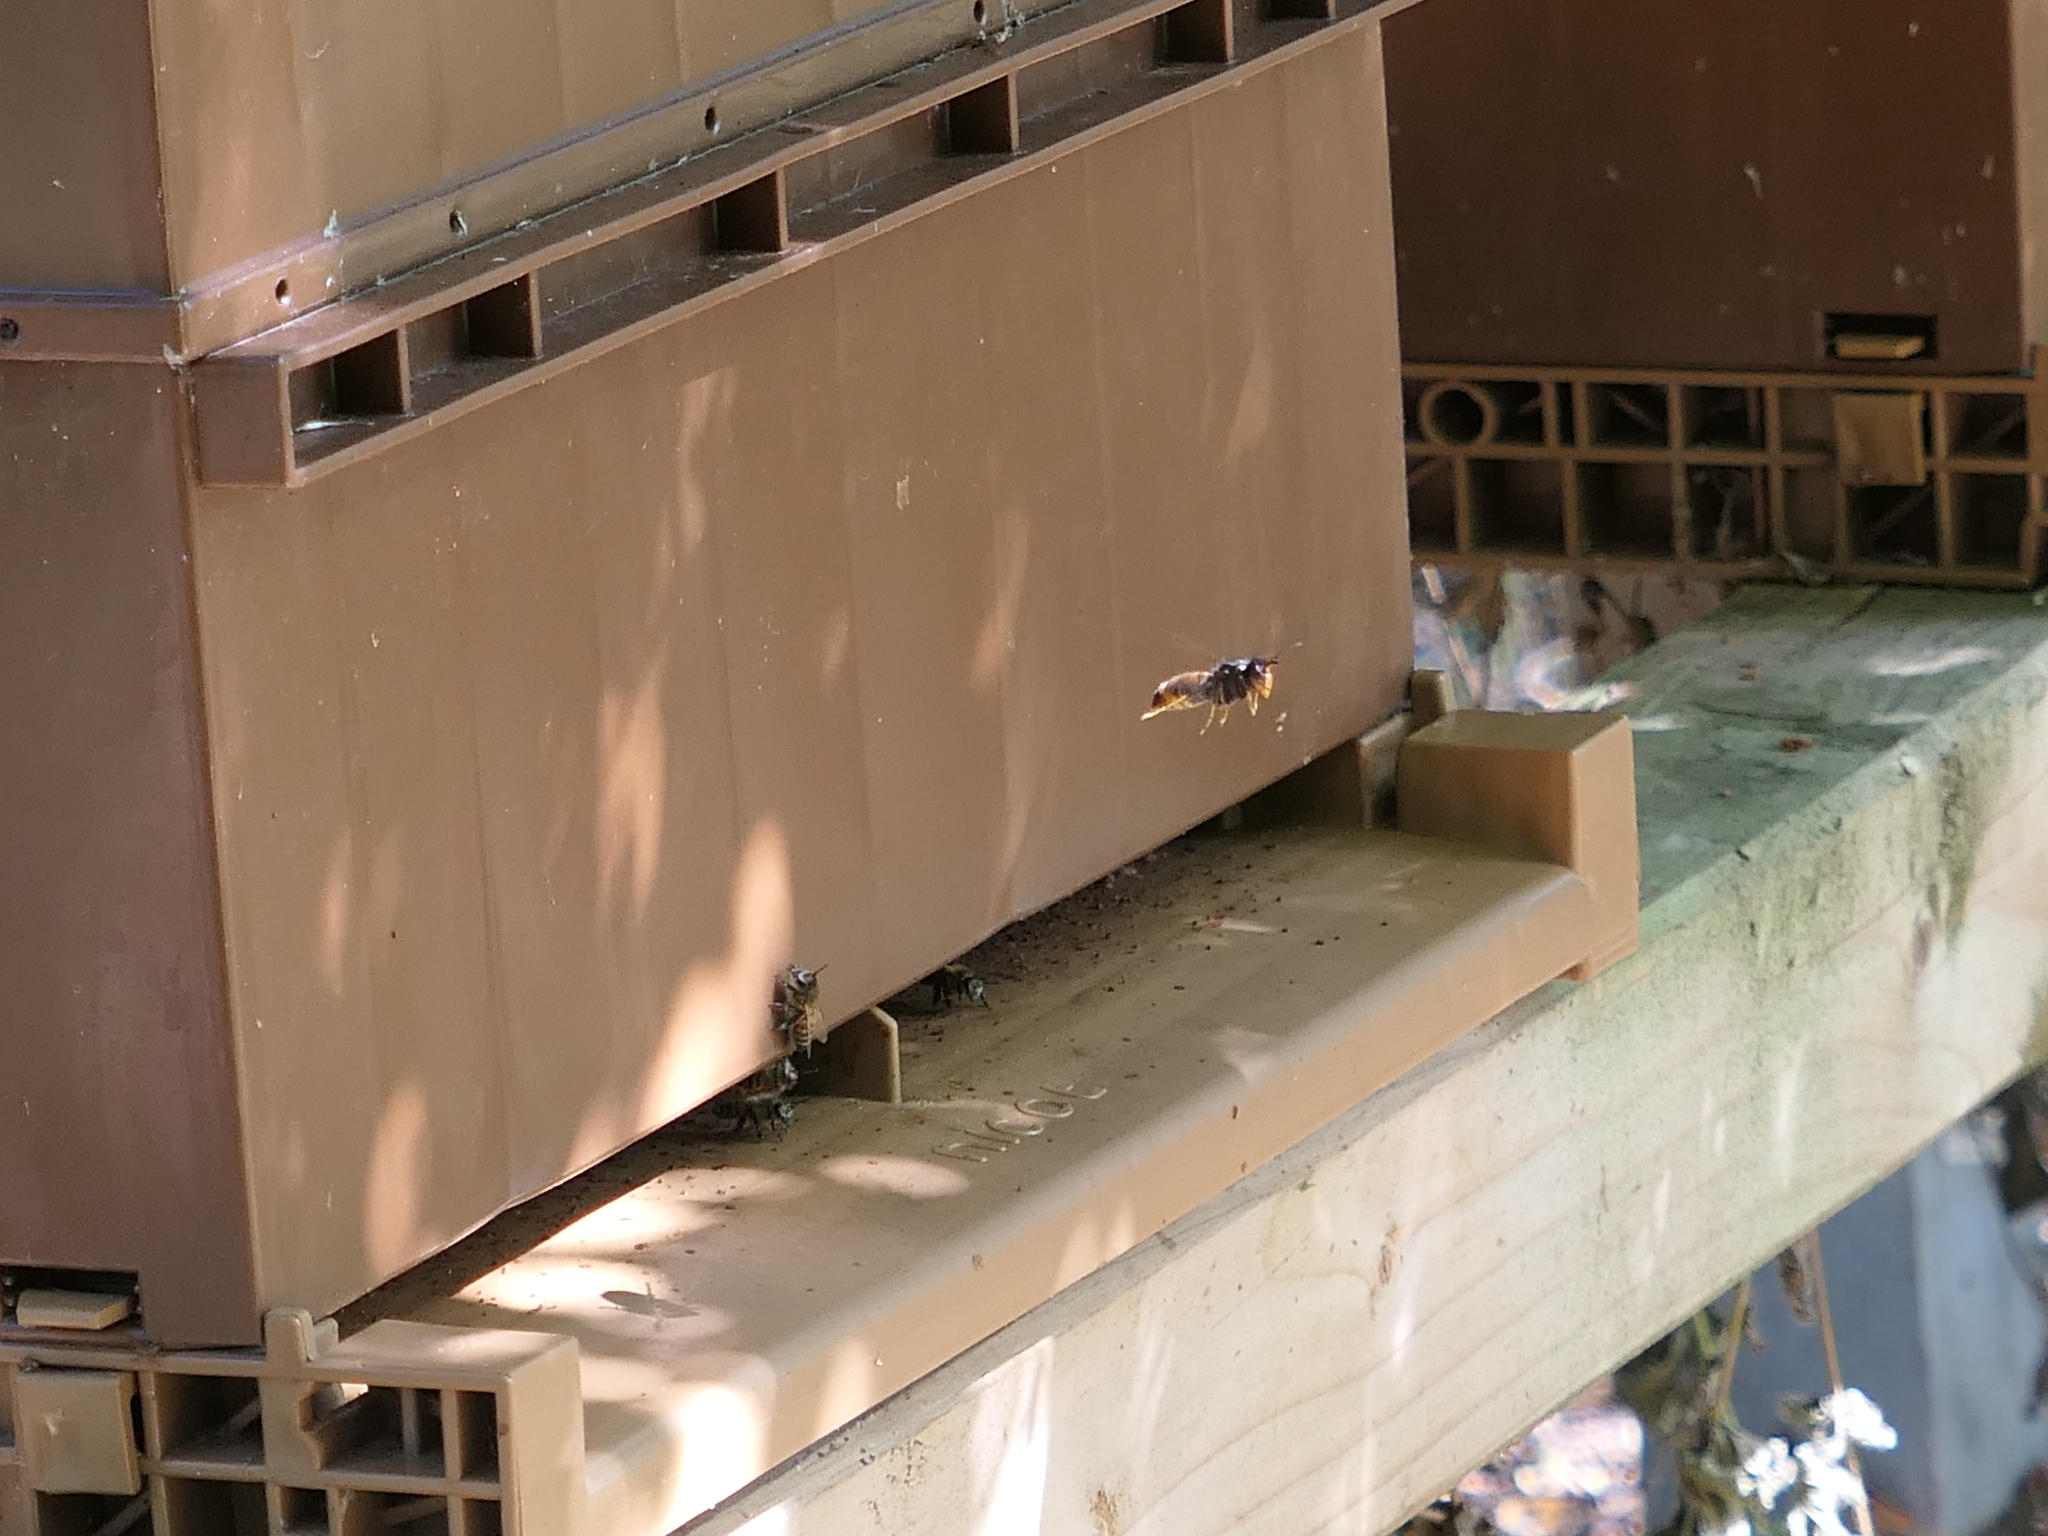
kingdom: Animalia
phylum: Arthropoda
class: Insecta
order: Hymenoptera
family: Vespidae
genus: Vespa
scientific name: Vespa velutina
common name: Asian hornet
